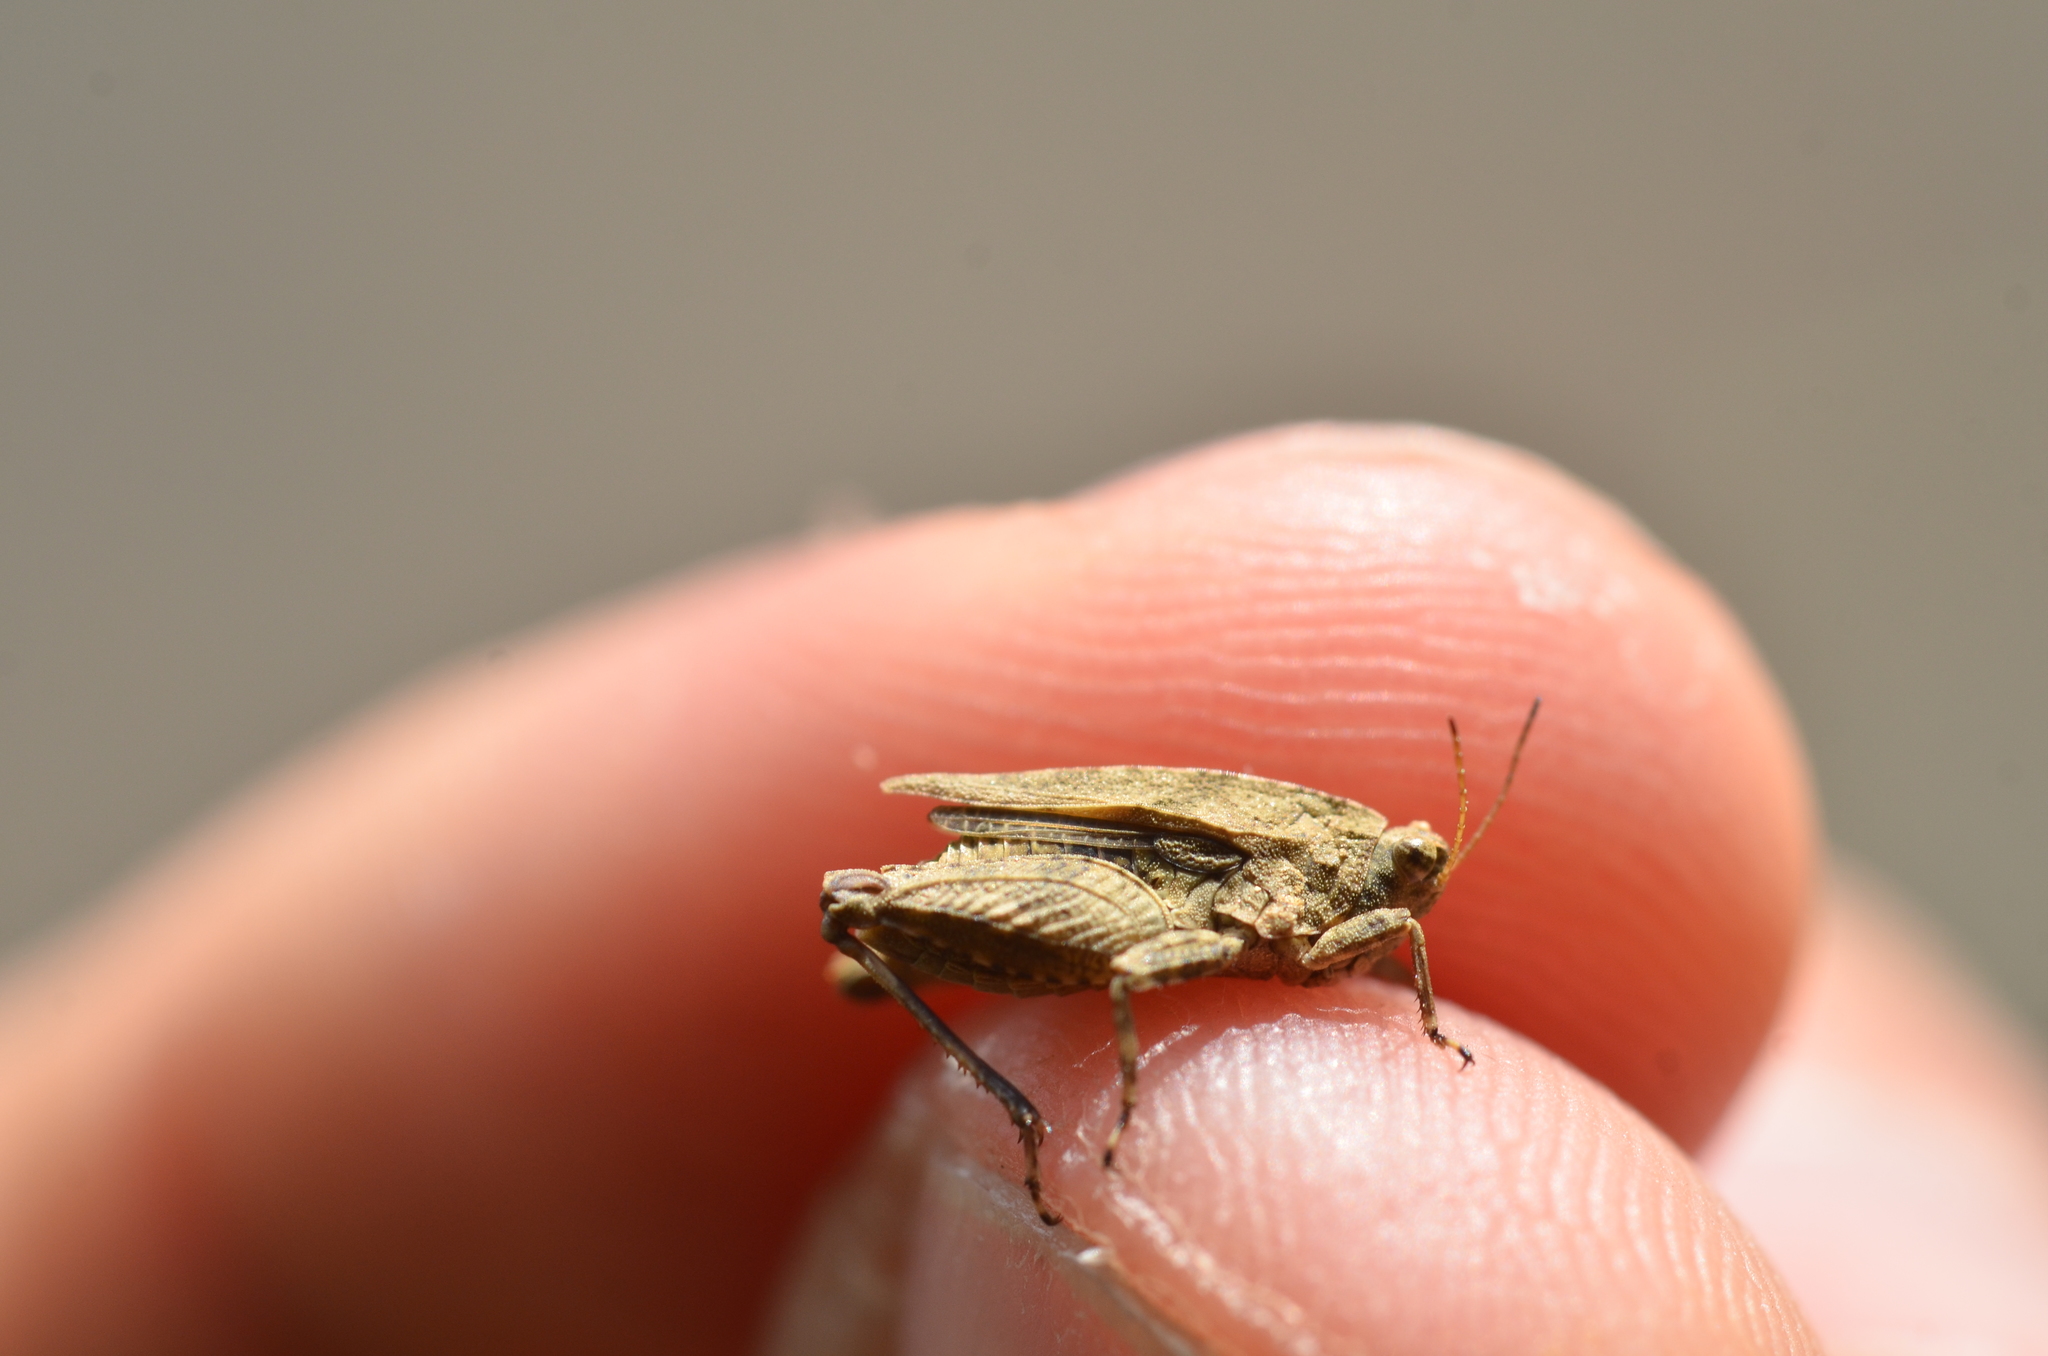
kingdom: Animalia
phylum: Arthropoda
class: Insecta
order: Orthoptera
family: Tetrigidae
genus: Tetrix
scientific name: Tetrix tenuicornis
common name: Long-horned groundhopper
